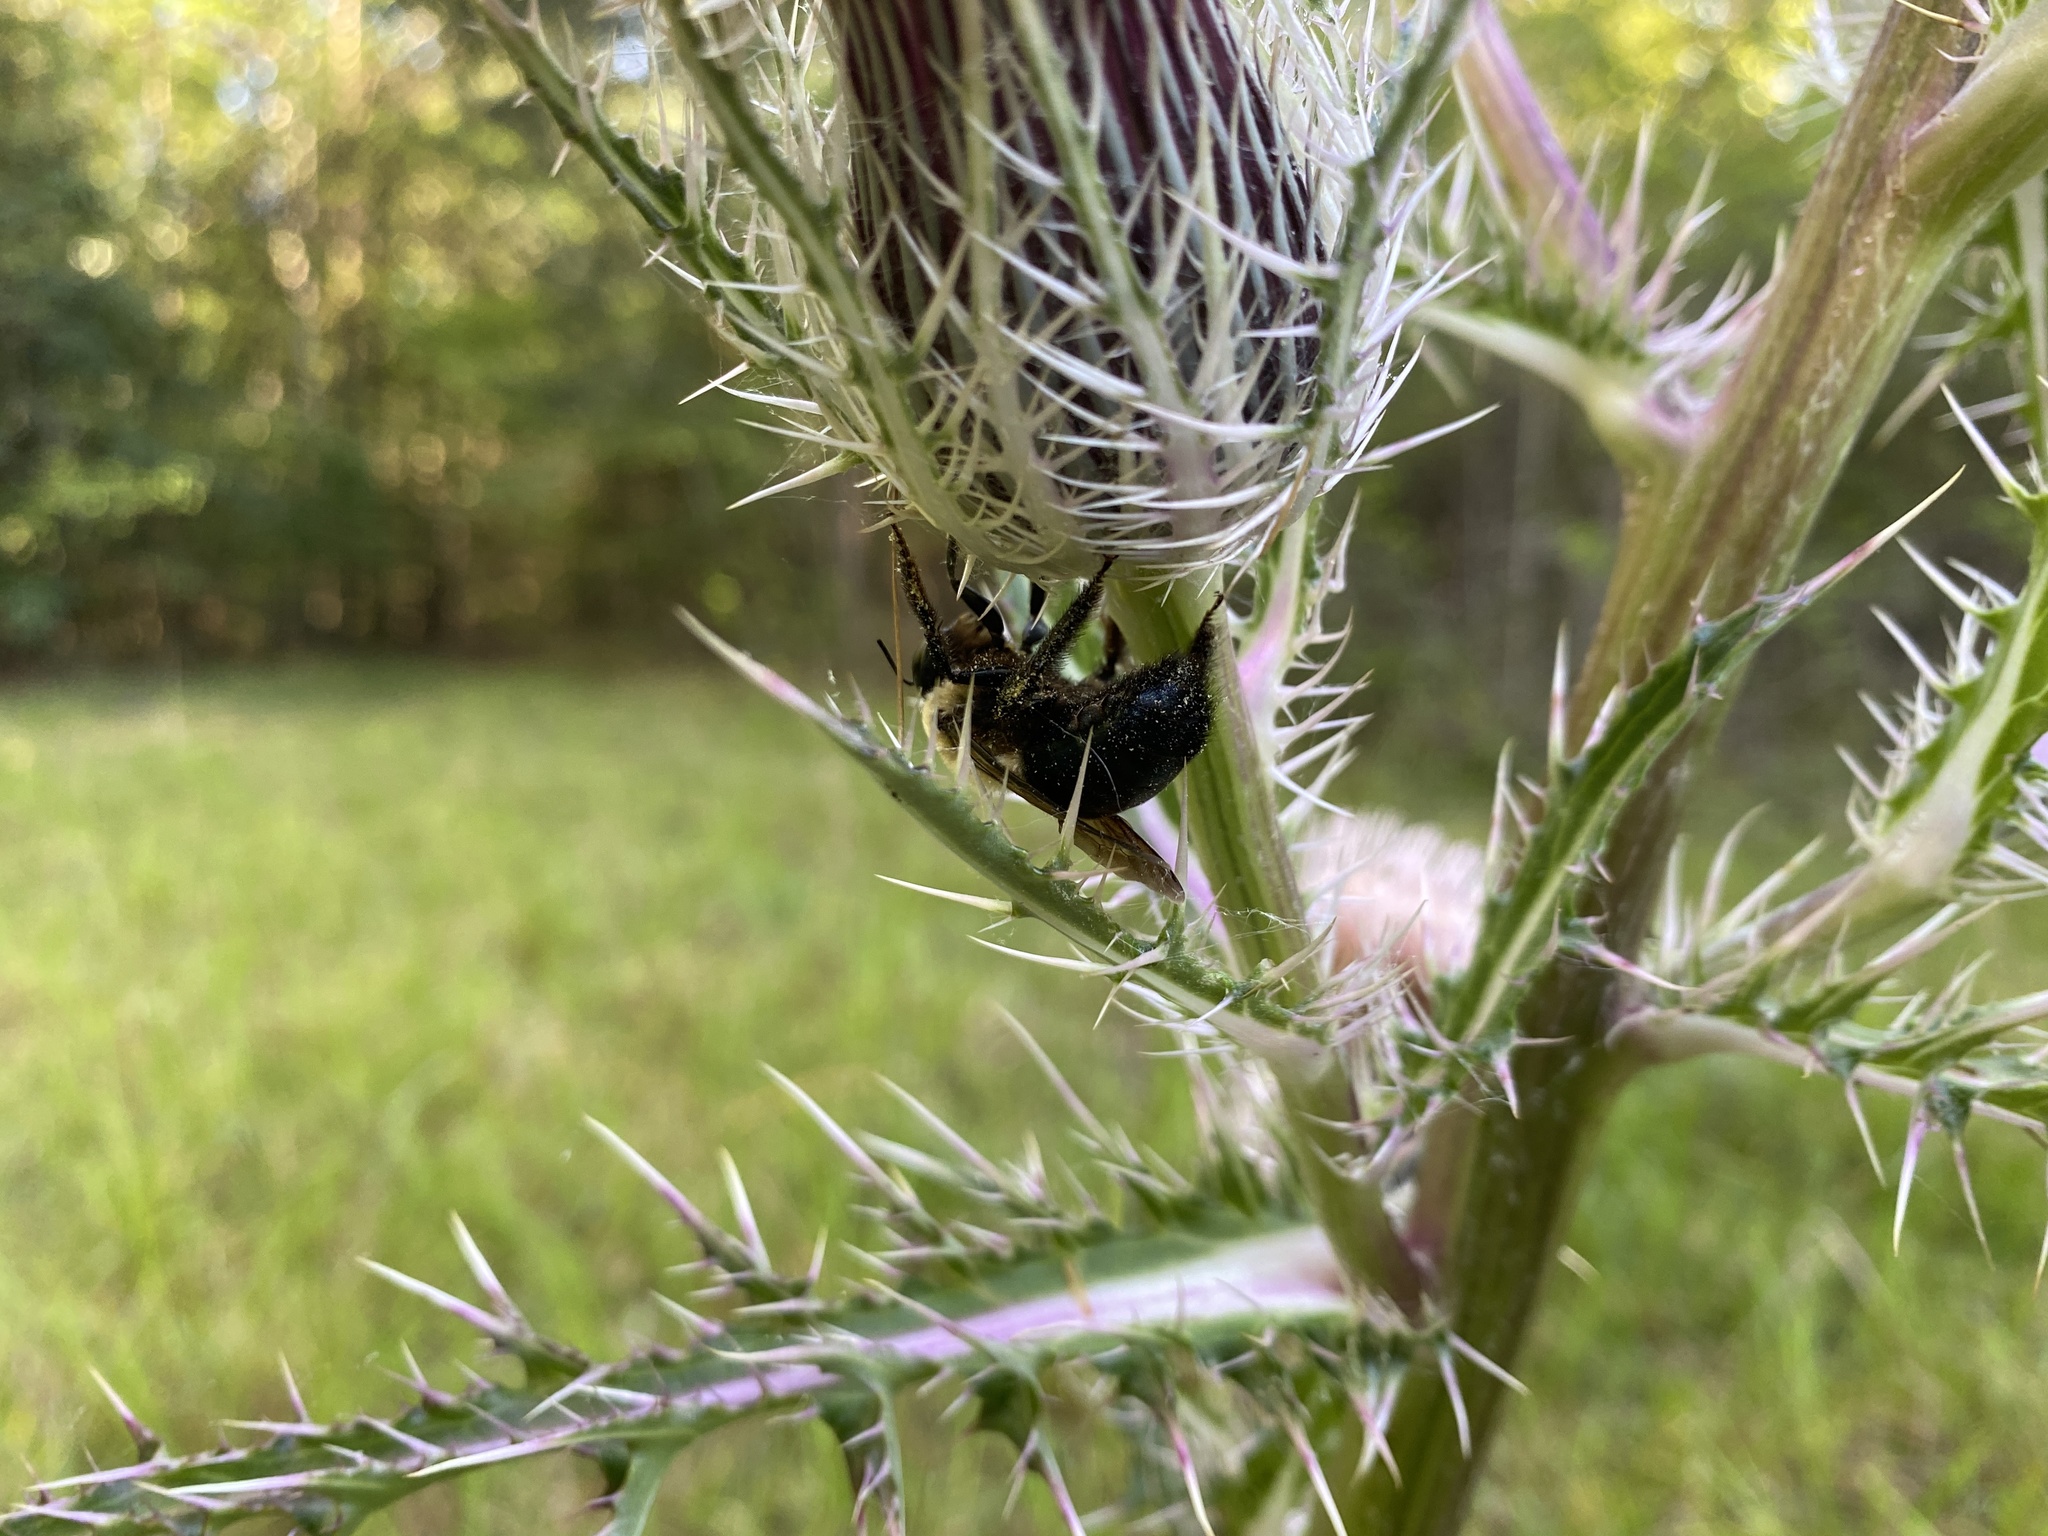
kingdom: Animalia
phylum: Arthropoda
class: Insecta
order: Hymenoptera
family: Apidae
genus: Xylocopa
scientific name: Xylocopa virginica
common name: Carpenter bee
